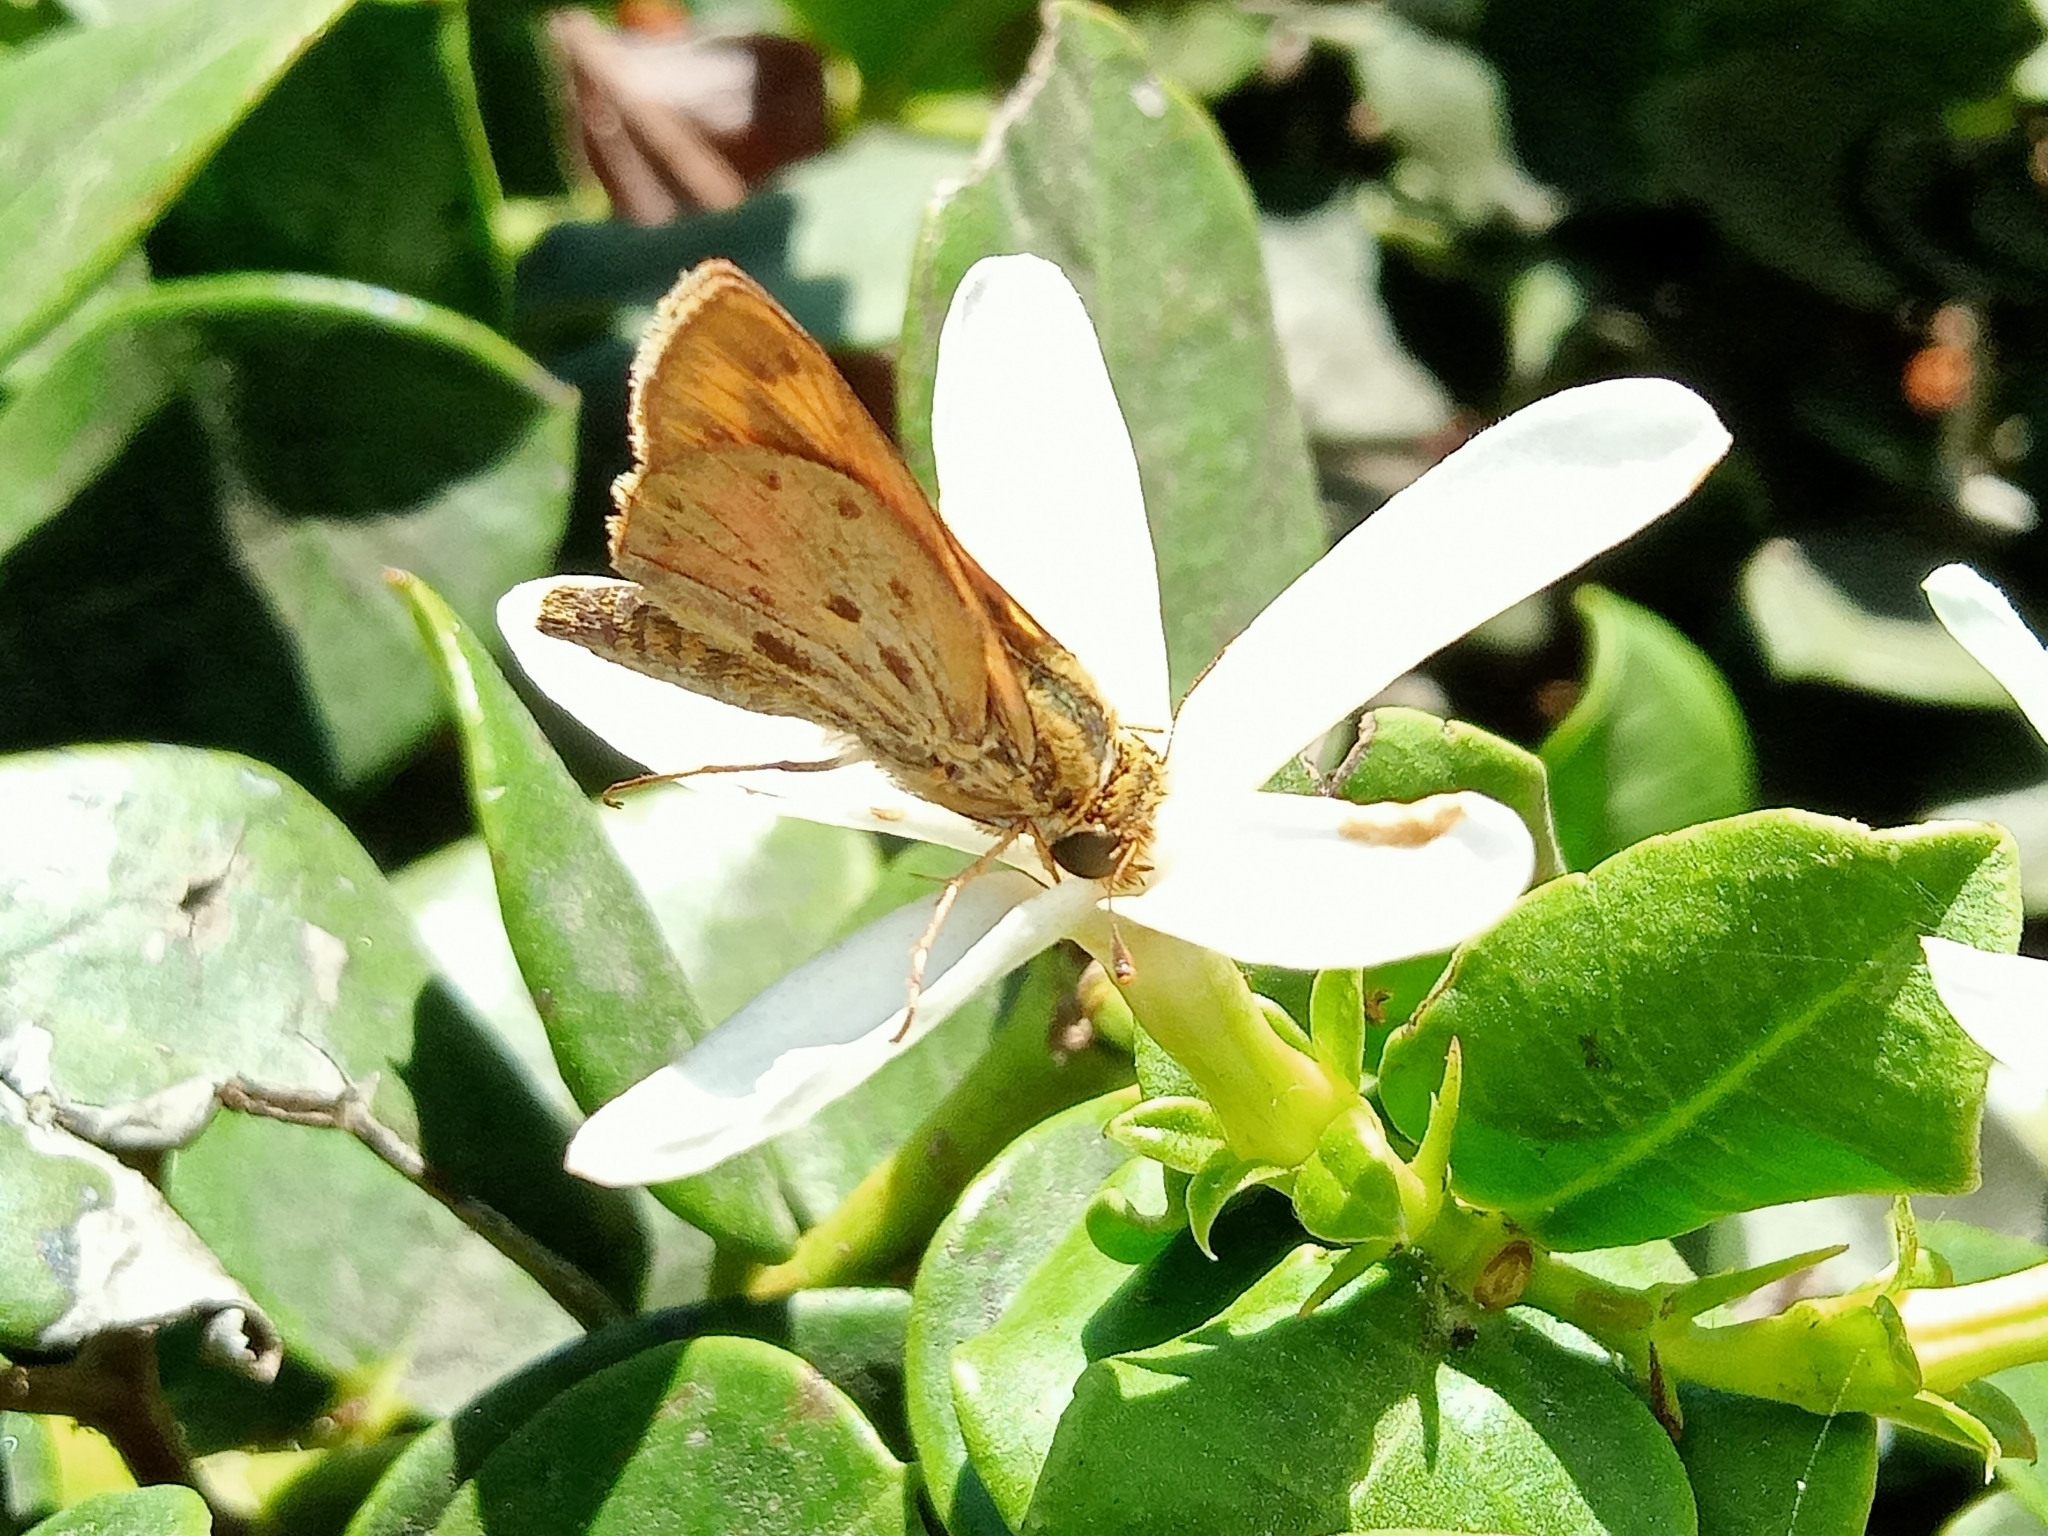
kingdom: Animalia
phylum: Arthropoda
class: Insecta
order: Lepidoptera
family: Hesperiidae
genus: Hylephila
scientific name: Hylephila phyleus
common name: Fiery skipper
